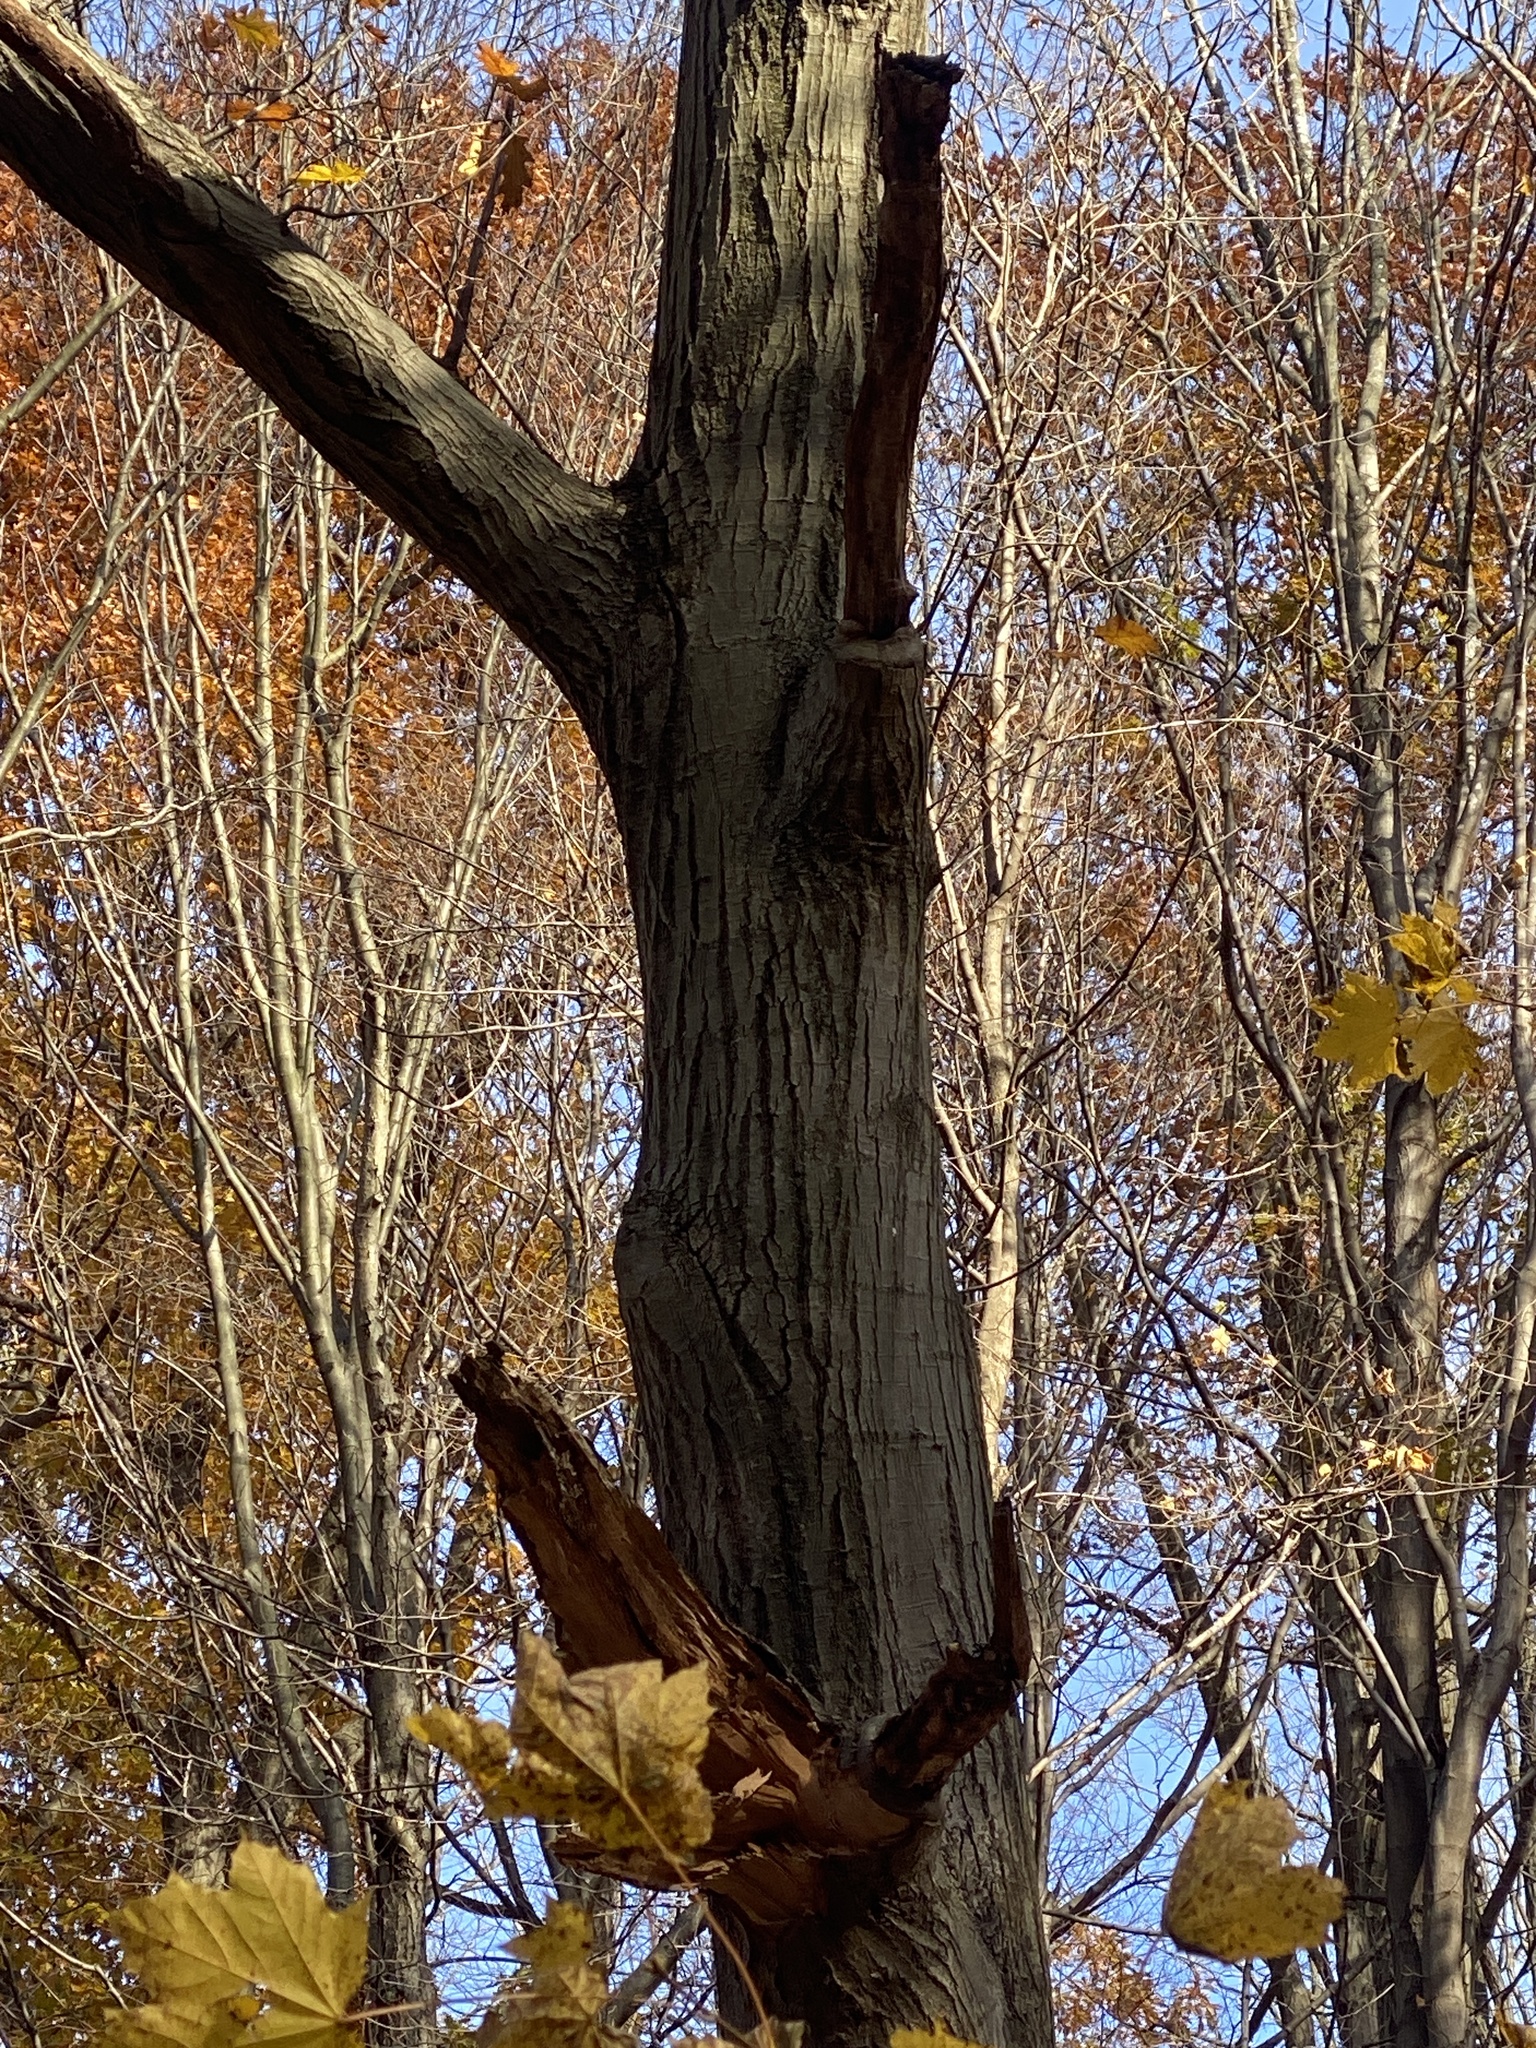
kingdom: Plantae
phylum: Tracheophyta
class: Magnoliopsida
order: Fagales
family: Fagaceae
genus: Quercus
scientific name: Quercus rubra
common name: Red oak
